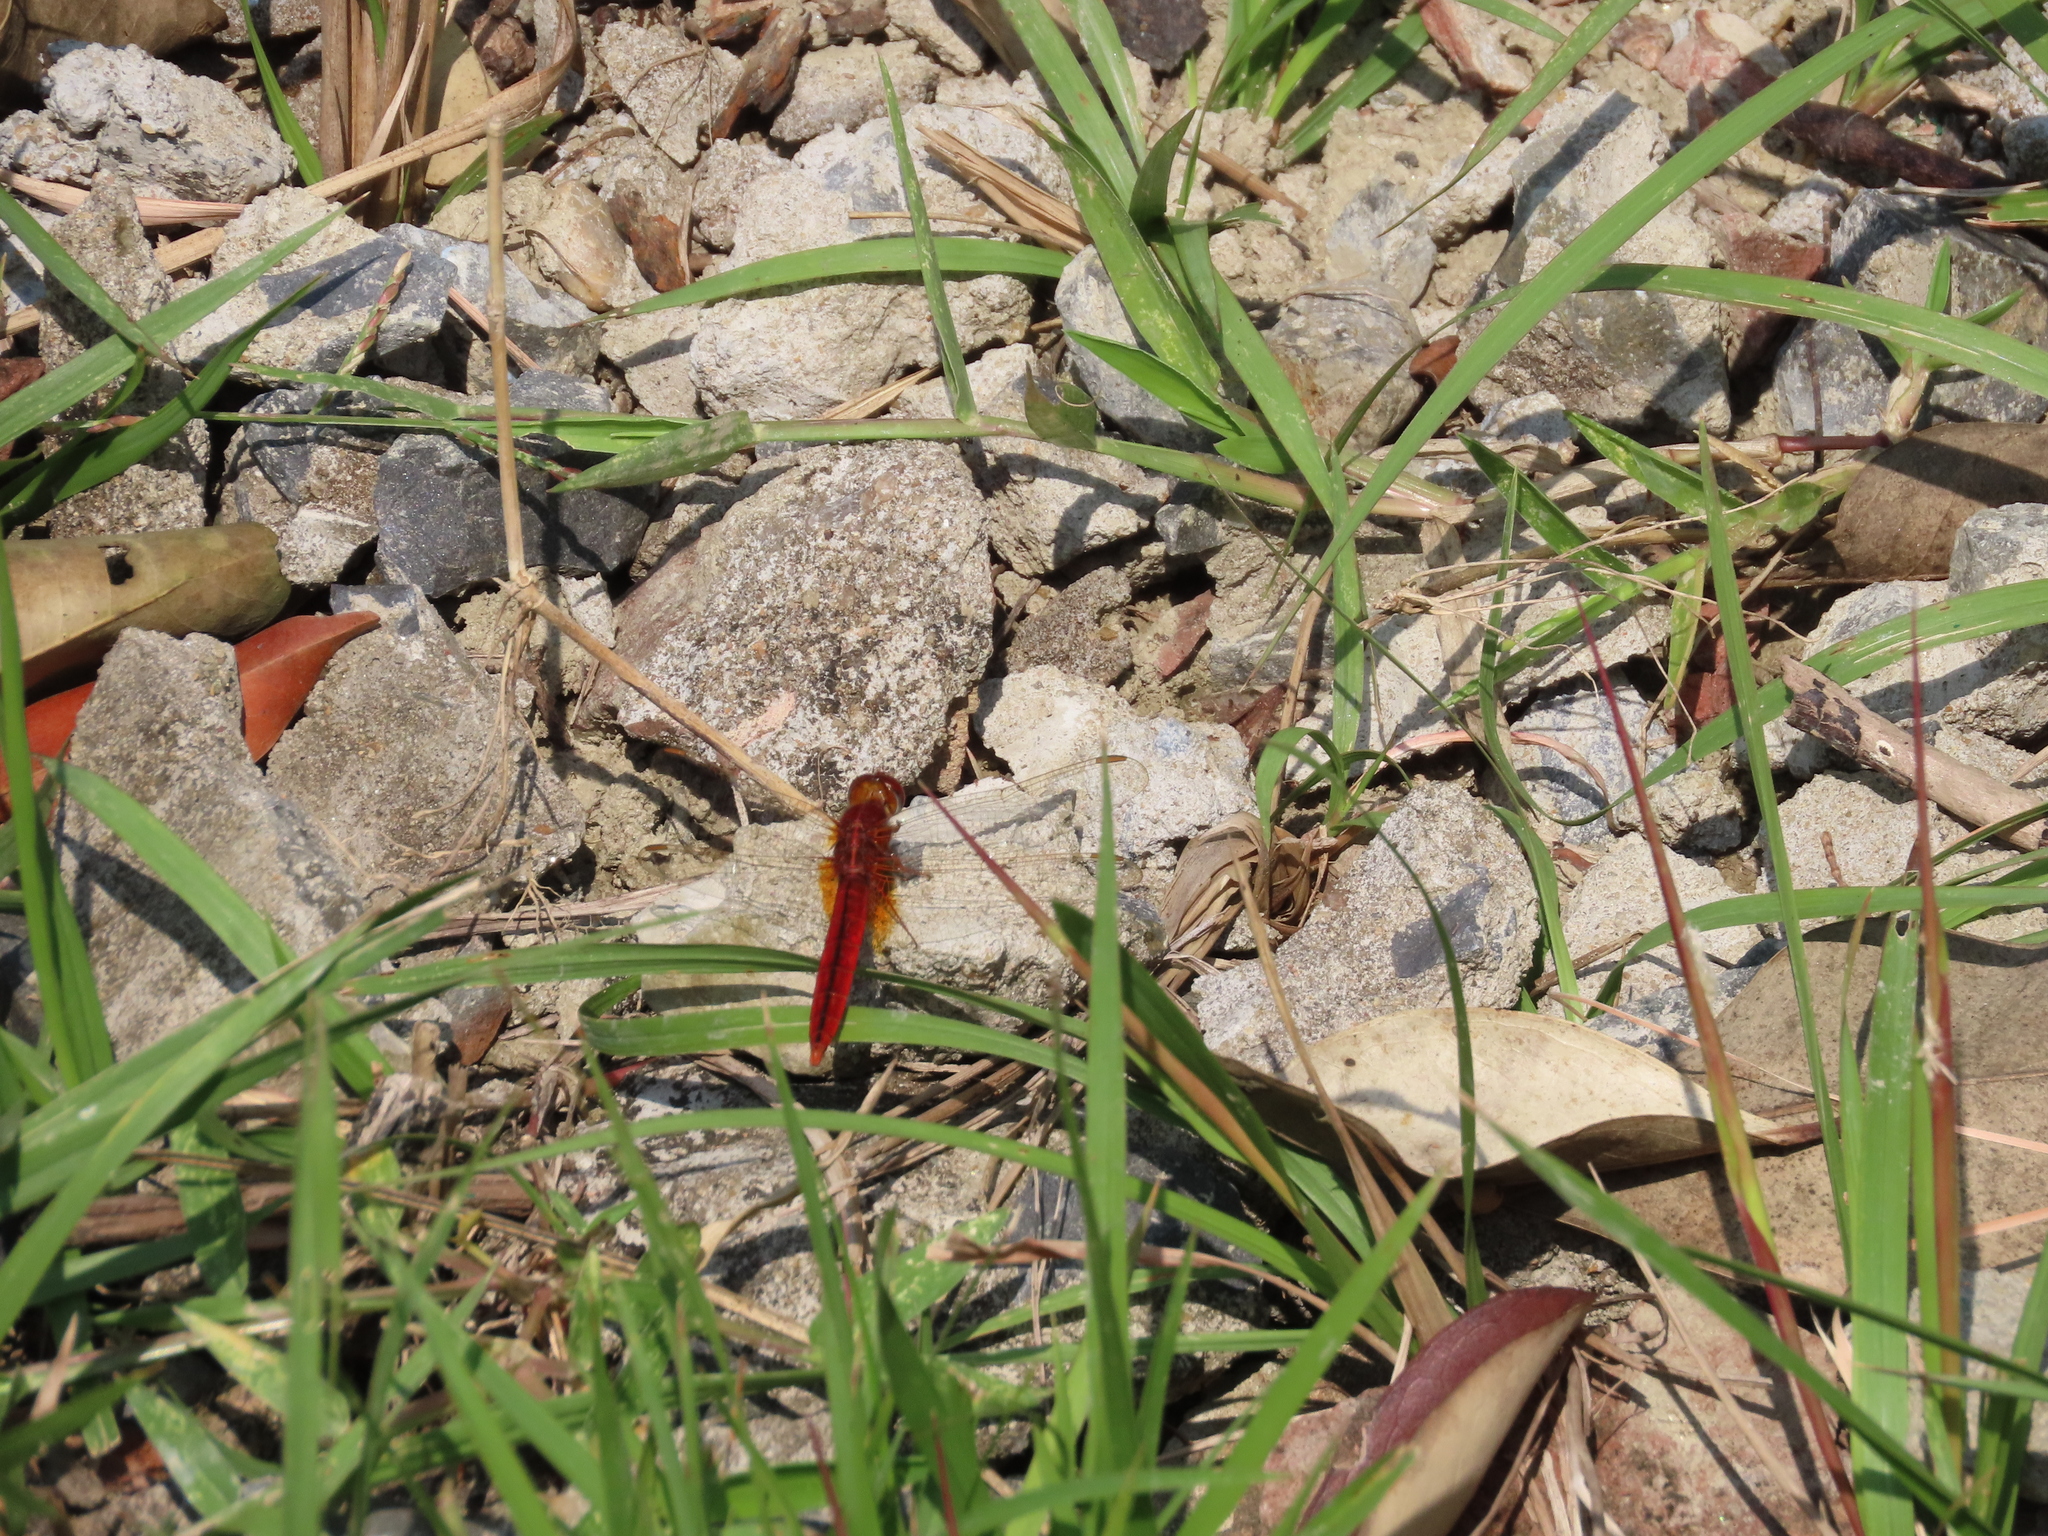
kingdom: Animalia
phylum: Arthropoda
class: Insecta
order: Odonata
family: Libellulidae
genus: Crocothemis
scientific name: Crocothemis servilia
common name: Scarlet skimmer
